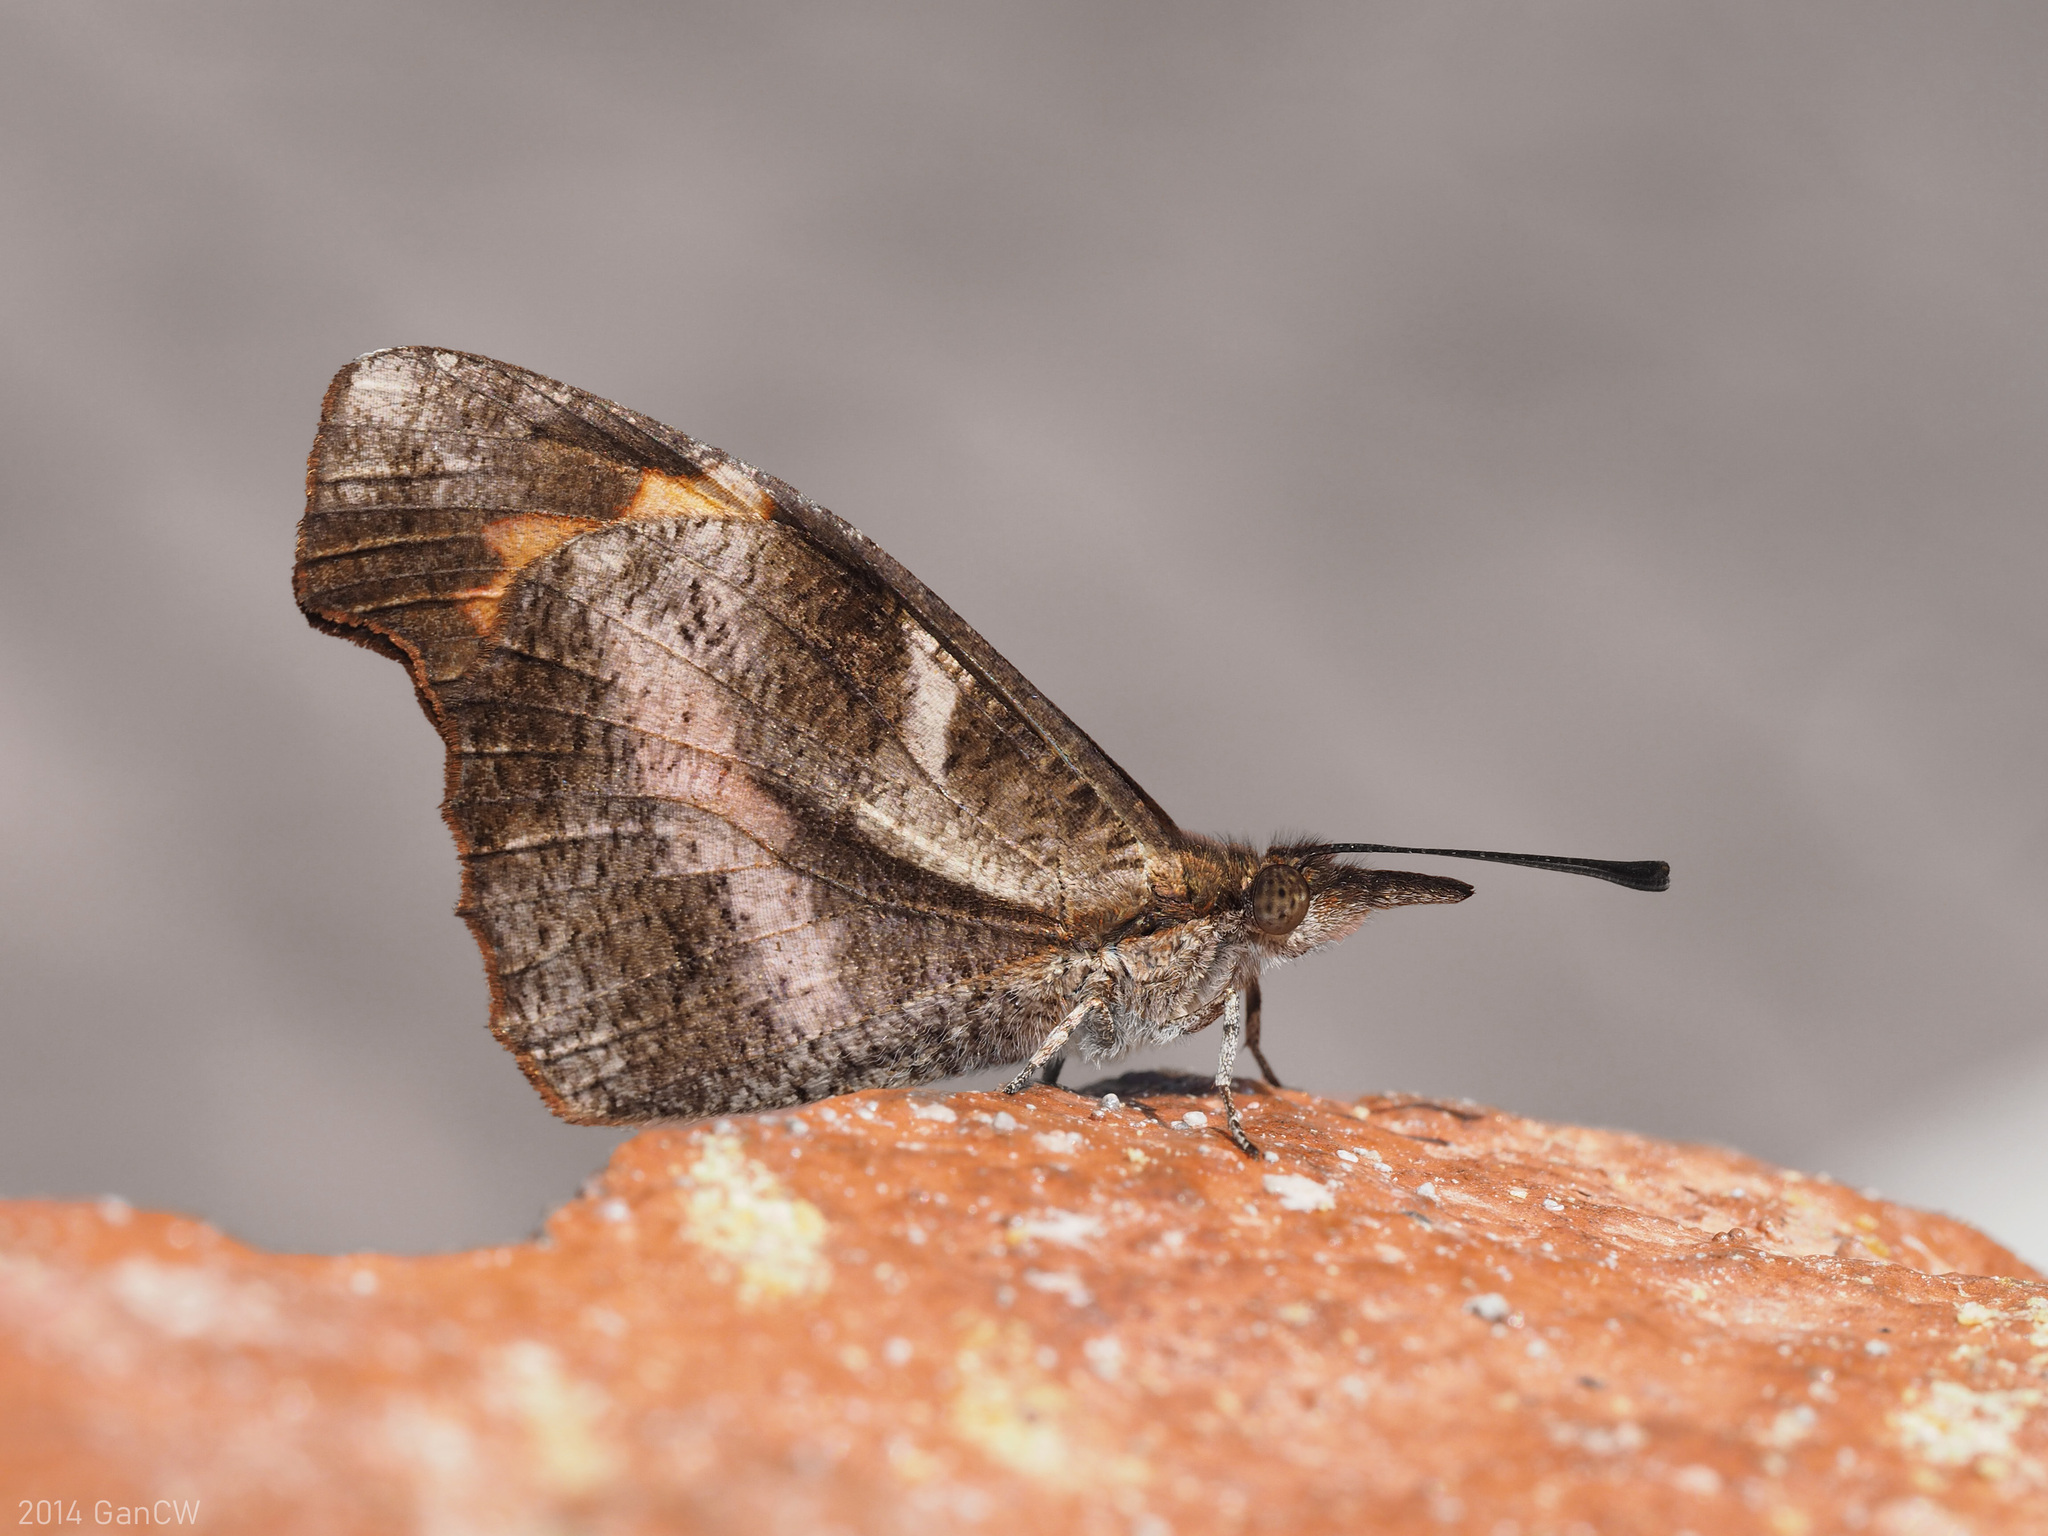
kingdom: Animalia
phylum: Arthropoda
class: Insecta
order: Lepidoptera
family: Nymphalidae
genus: Libythea
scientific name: Libythea myrrha
